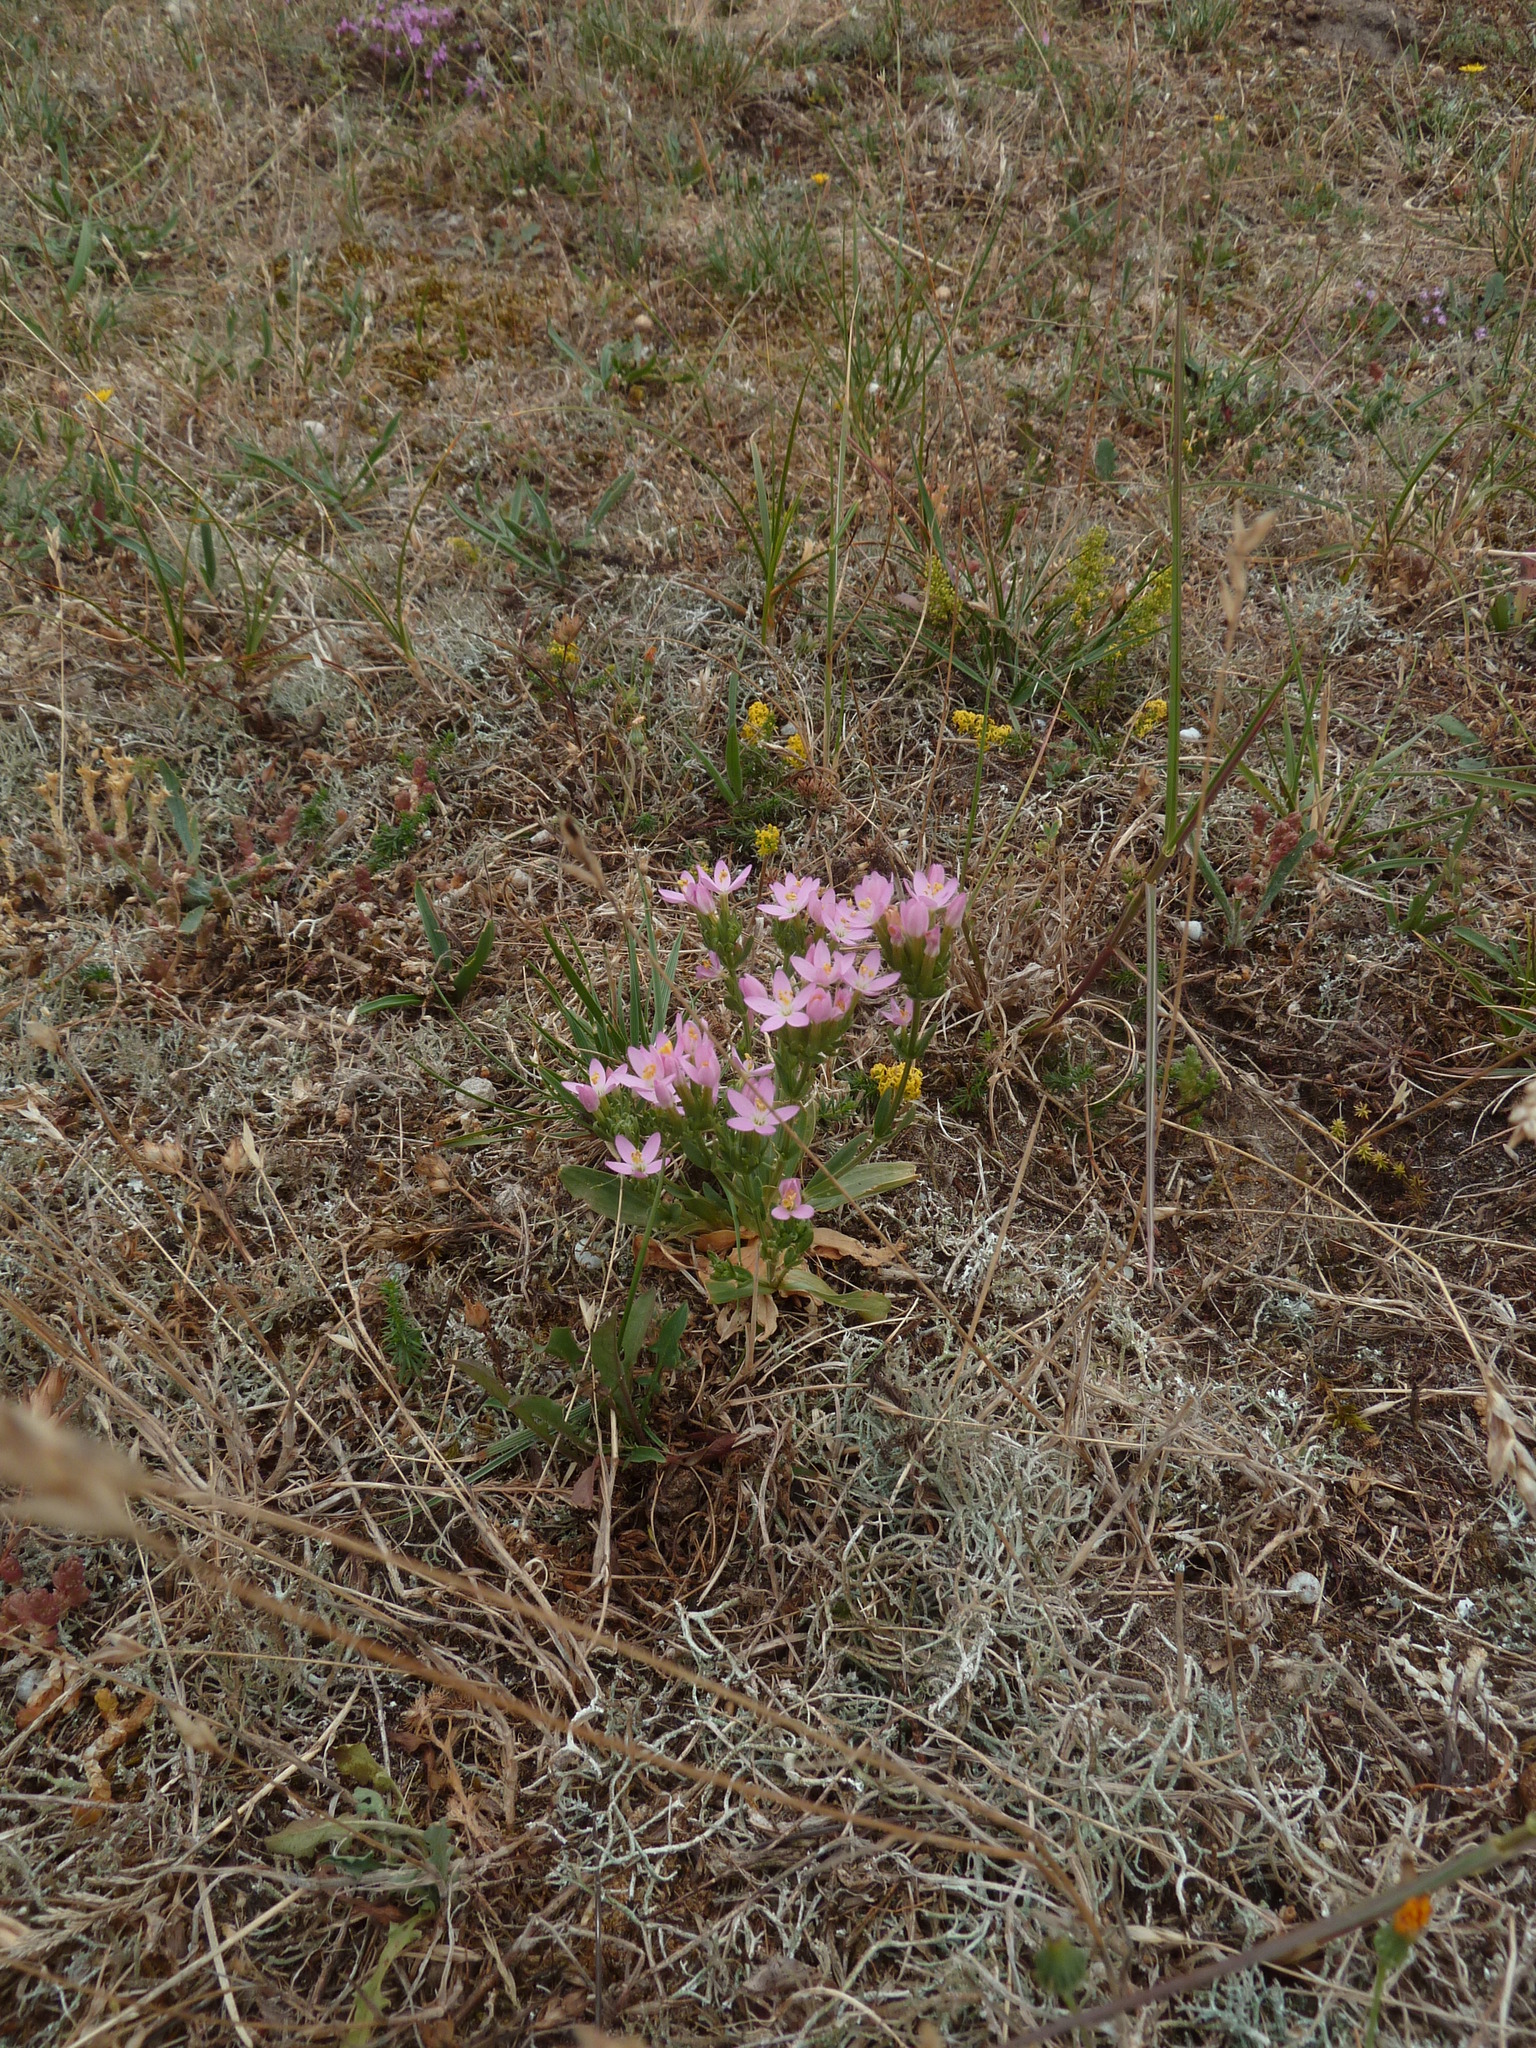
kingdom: Plantae
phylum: Tracheophyta
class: Magnoliopsida
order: Gentianales
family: Gentianaceae
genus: Centaurium
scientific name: Centaurium erythraea
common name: Common centaury
